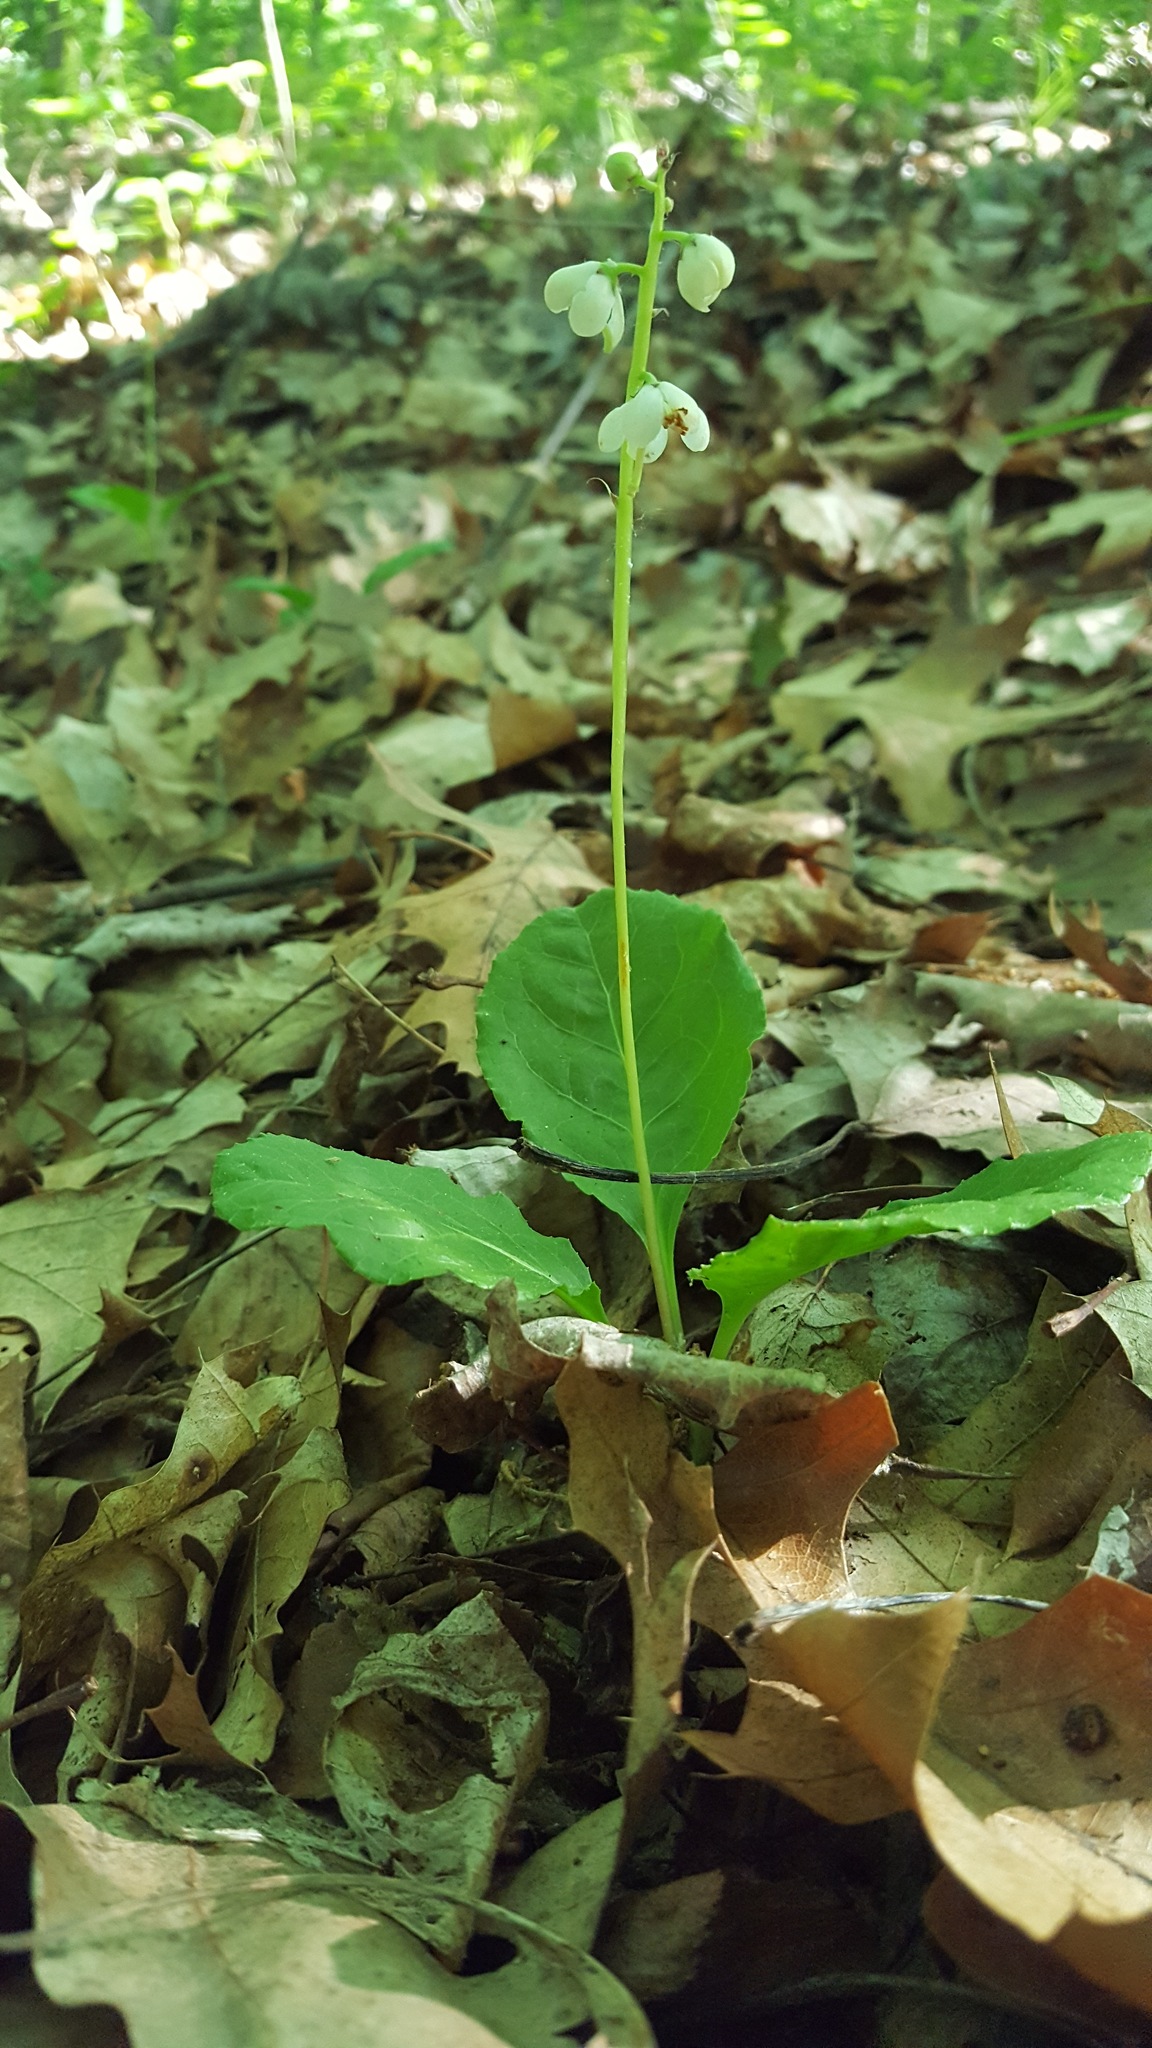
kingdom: Plantae
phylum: Tracheophyta
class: Magnoliopsida
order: Ericales
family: Ericaceae
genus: Pyrola
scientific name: Pyrola elliptica
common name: Shinleaf
